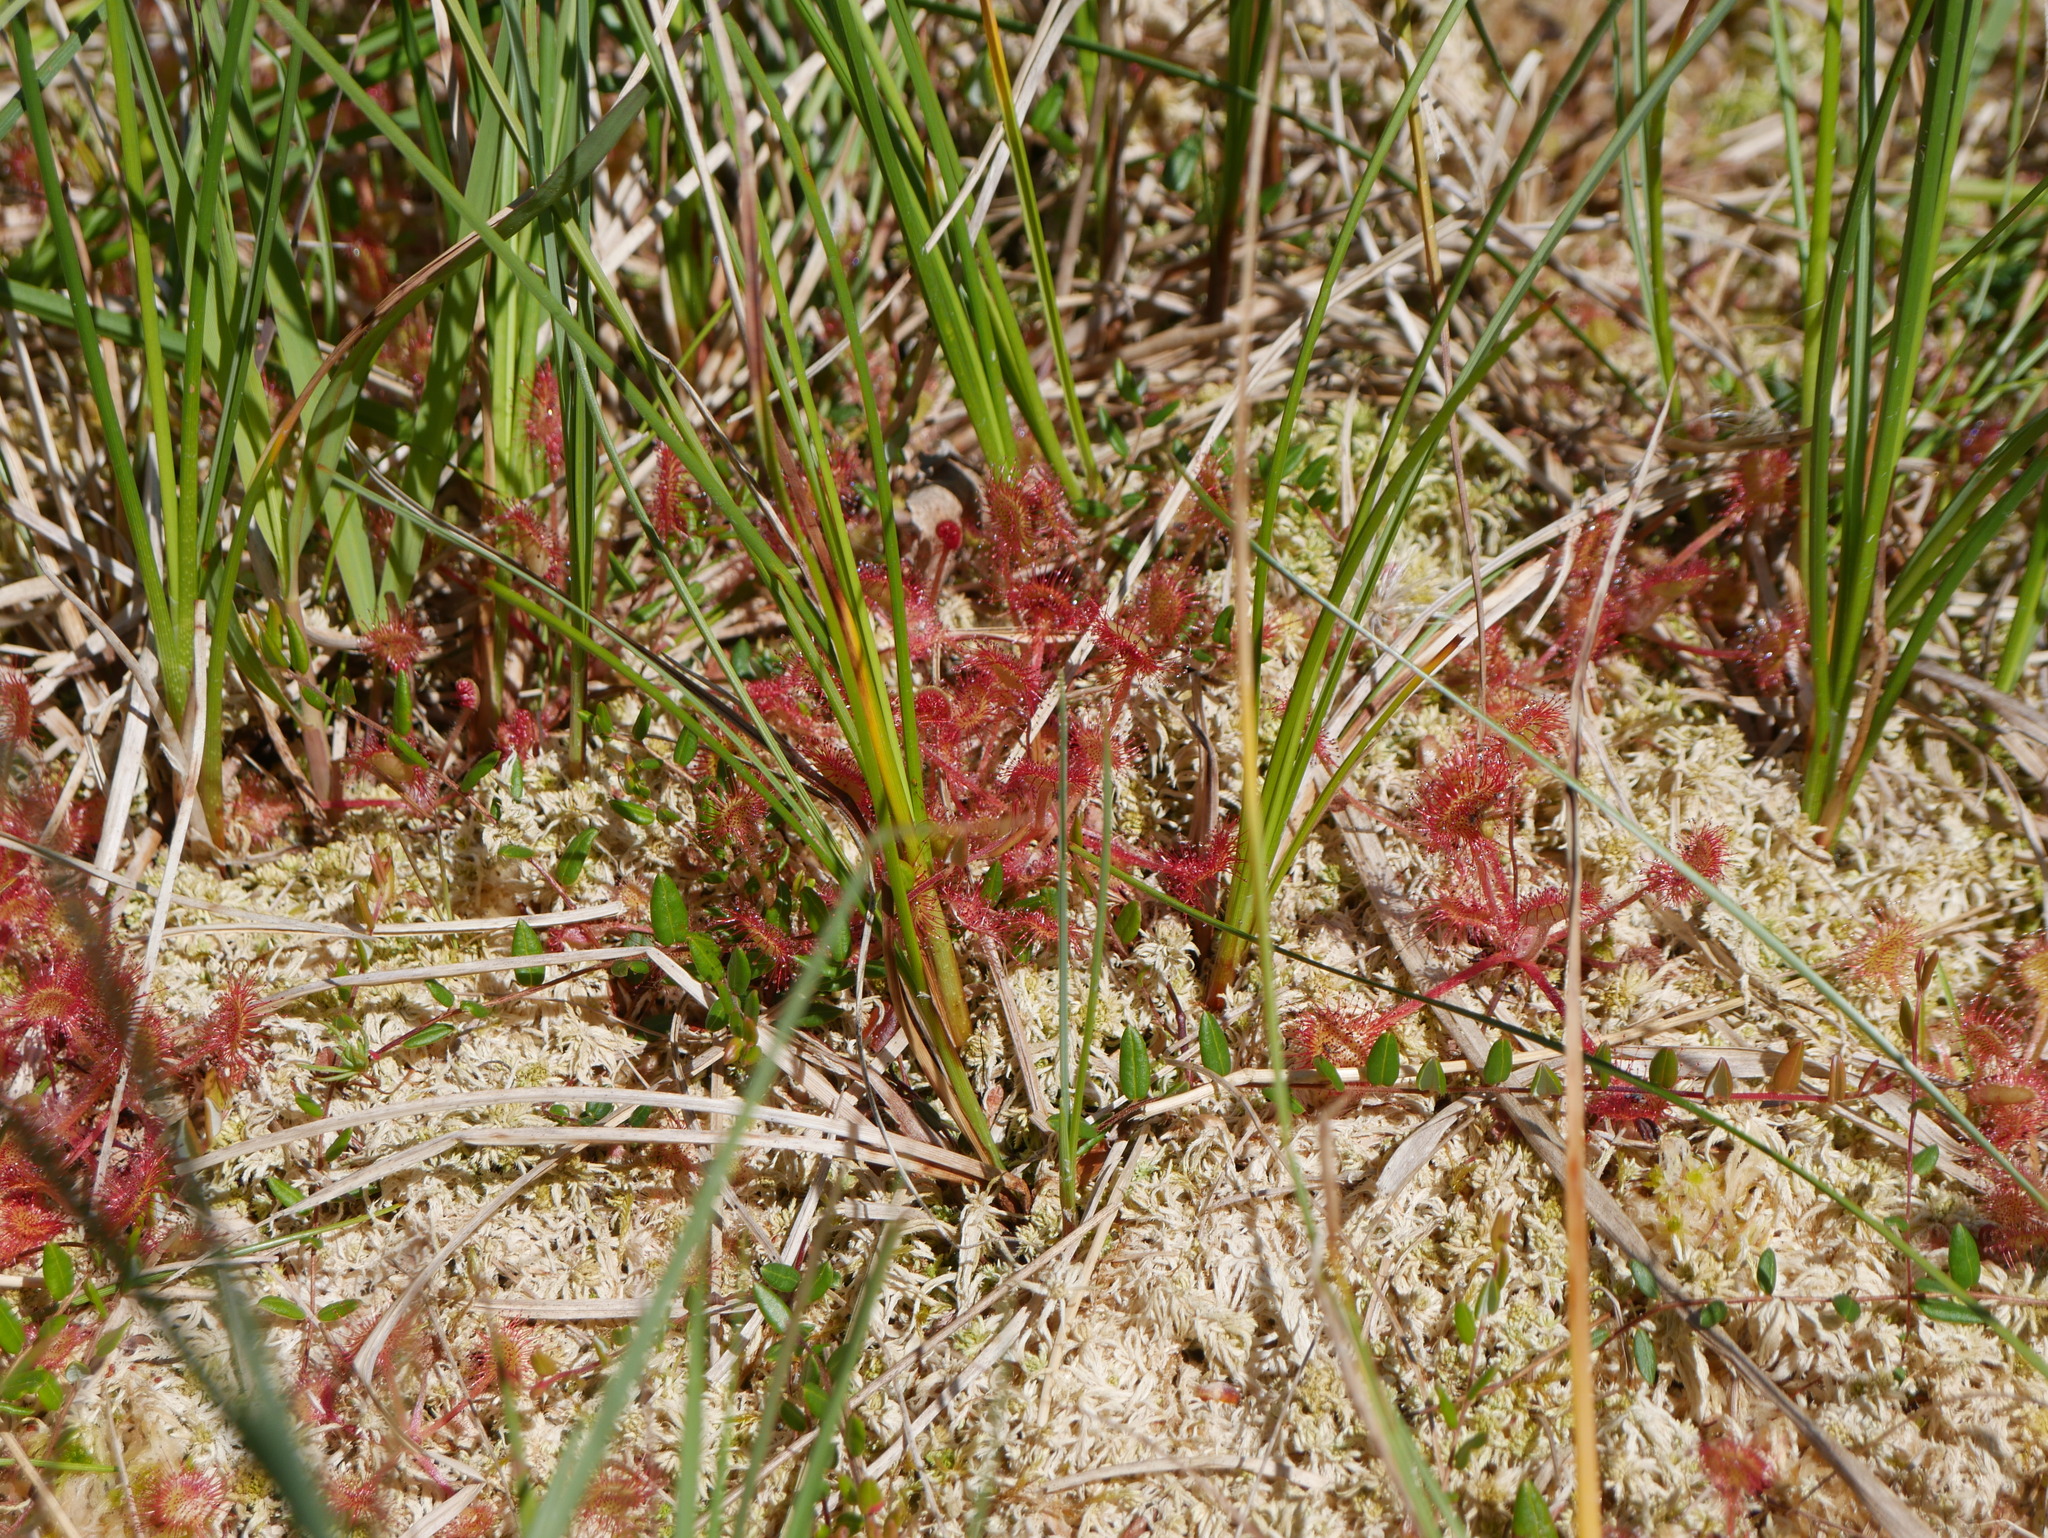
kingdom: Plantae
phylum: Tracheophyta
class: Magnoliopsida
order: Caryophyllales
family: Droseraceae
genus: Drosera
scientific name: Drosera rotundifolia
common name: Round-leaved sundew
